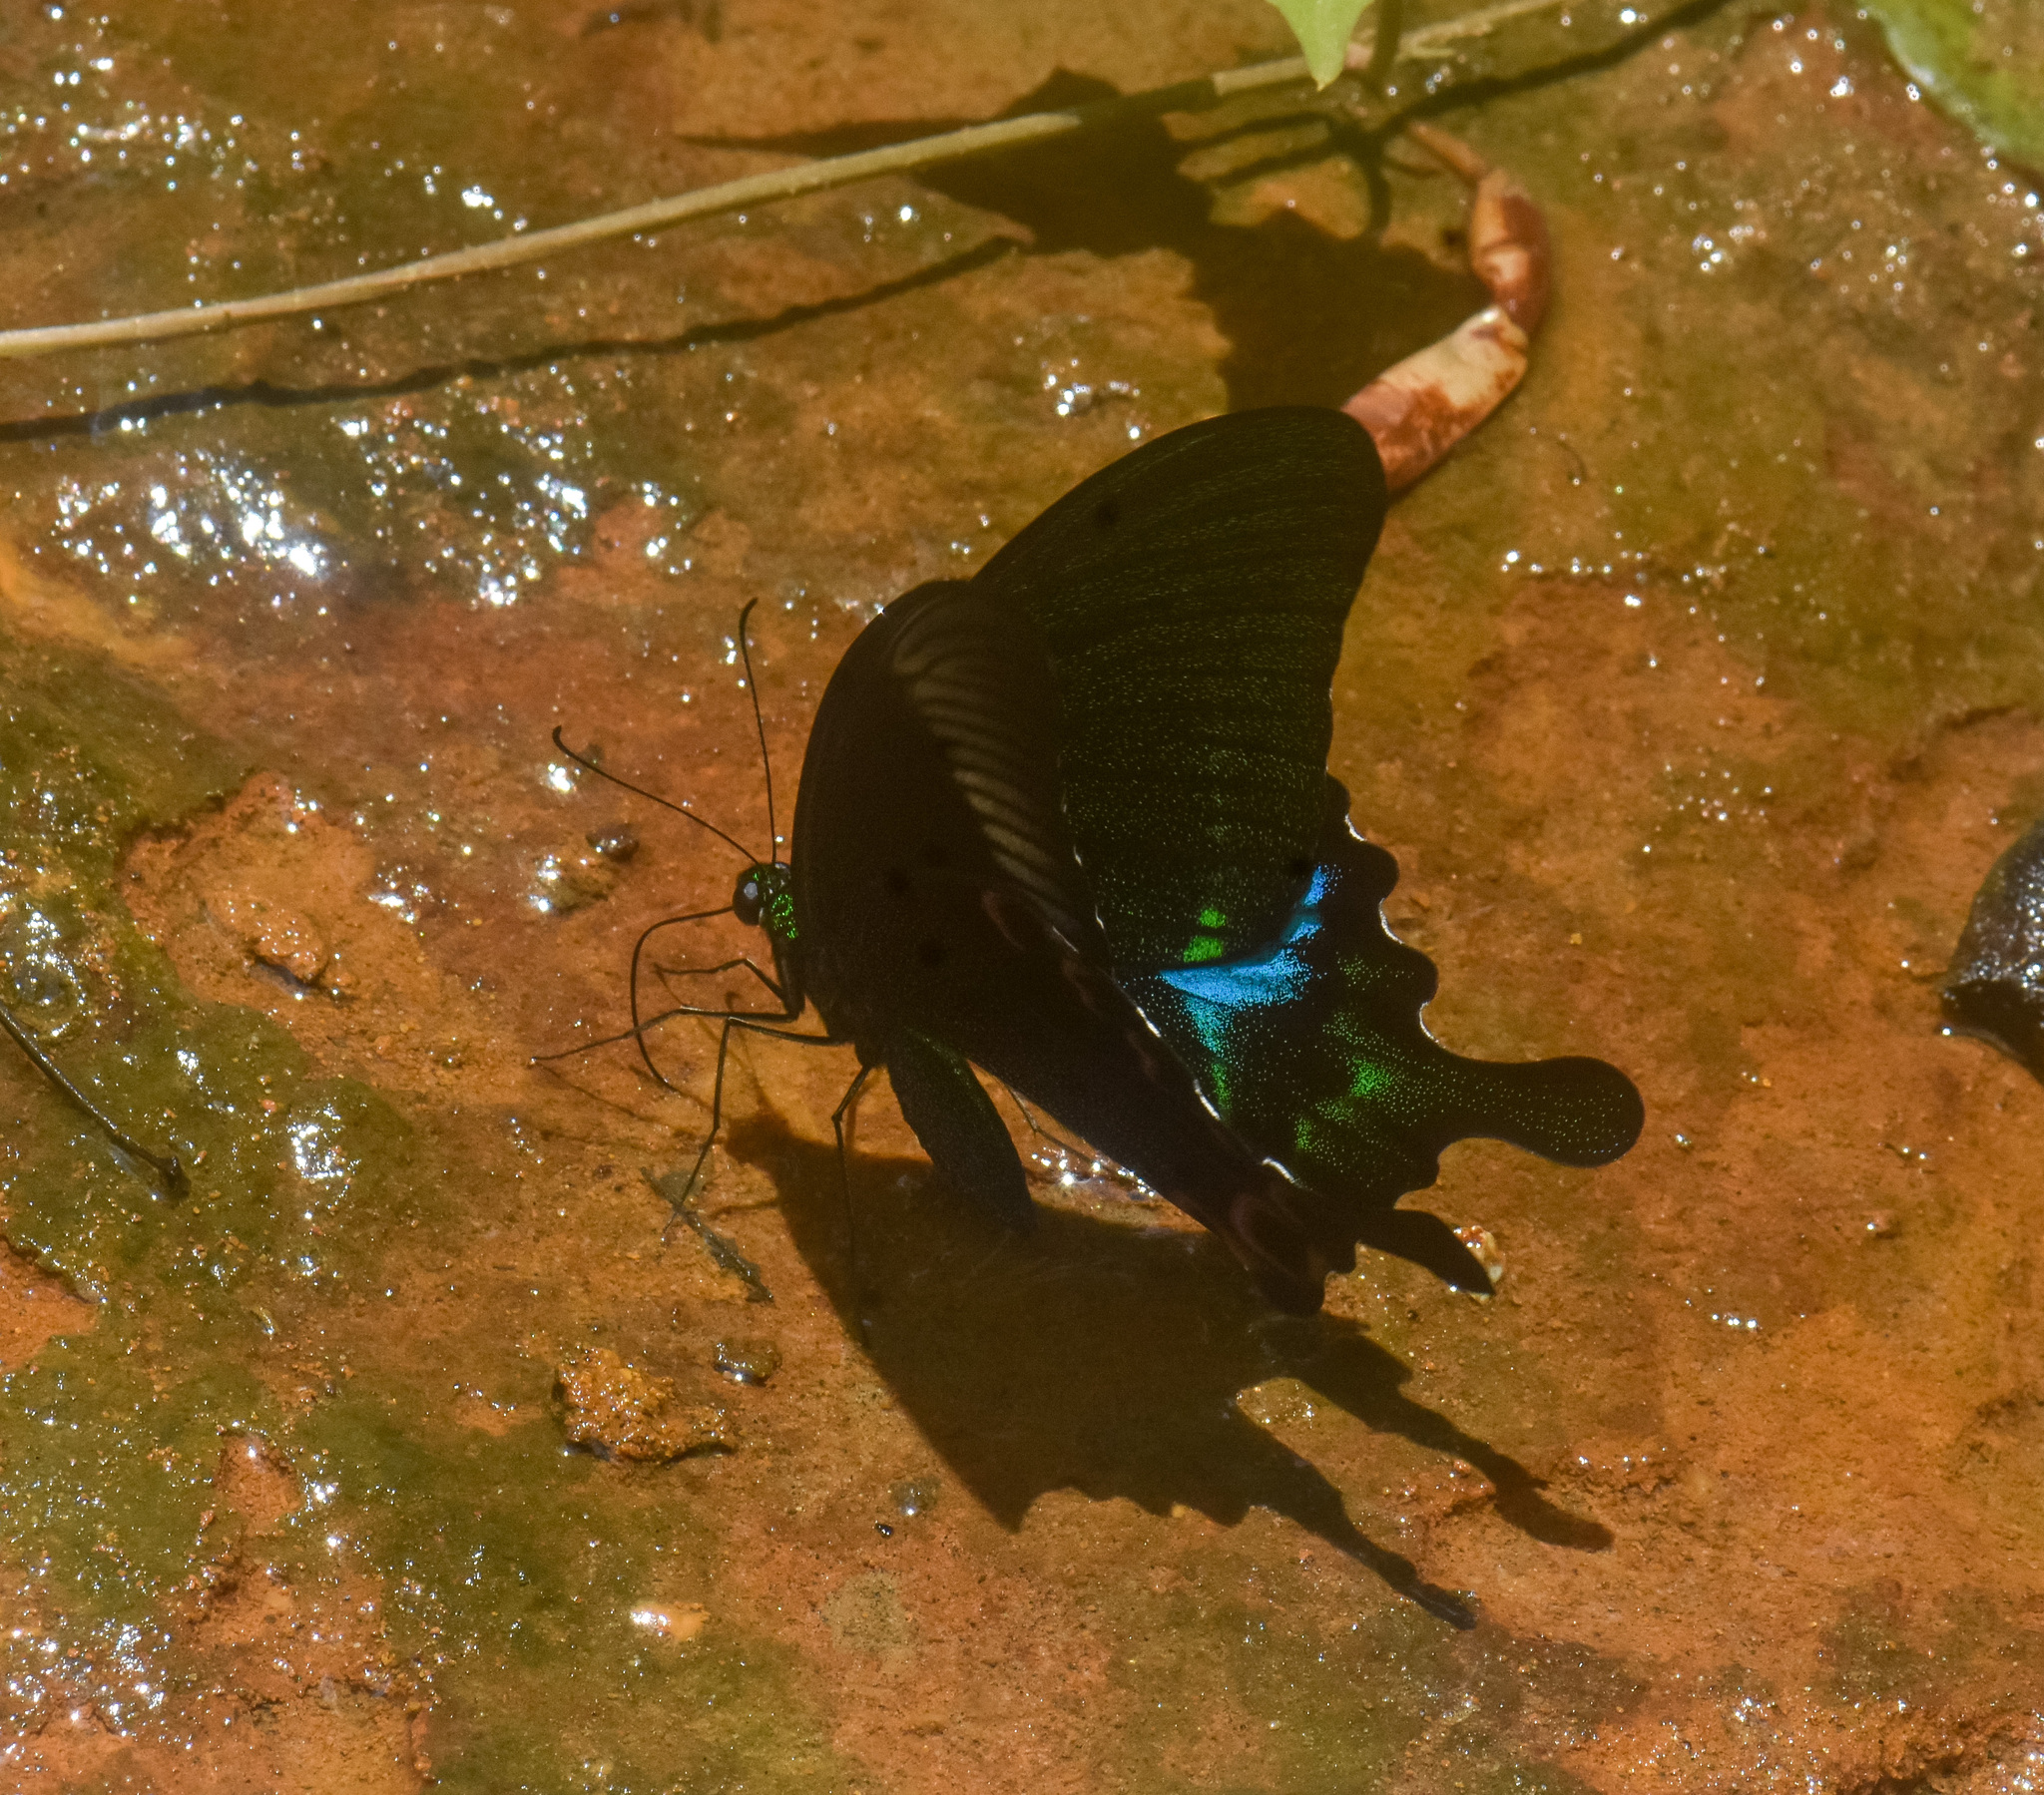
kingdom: Animalia
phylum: Arthropoda
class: Insecta
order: Lepidoptera
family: Papilionidae
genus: Papilio
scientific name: Papilio paris
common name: Paris peacock
